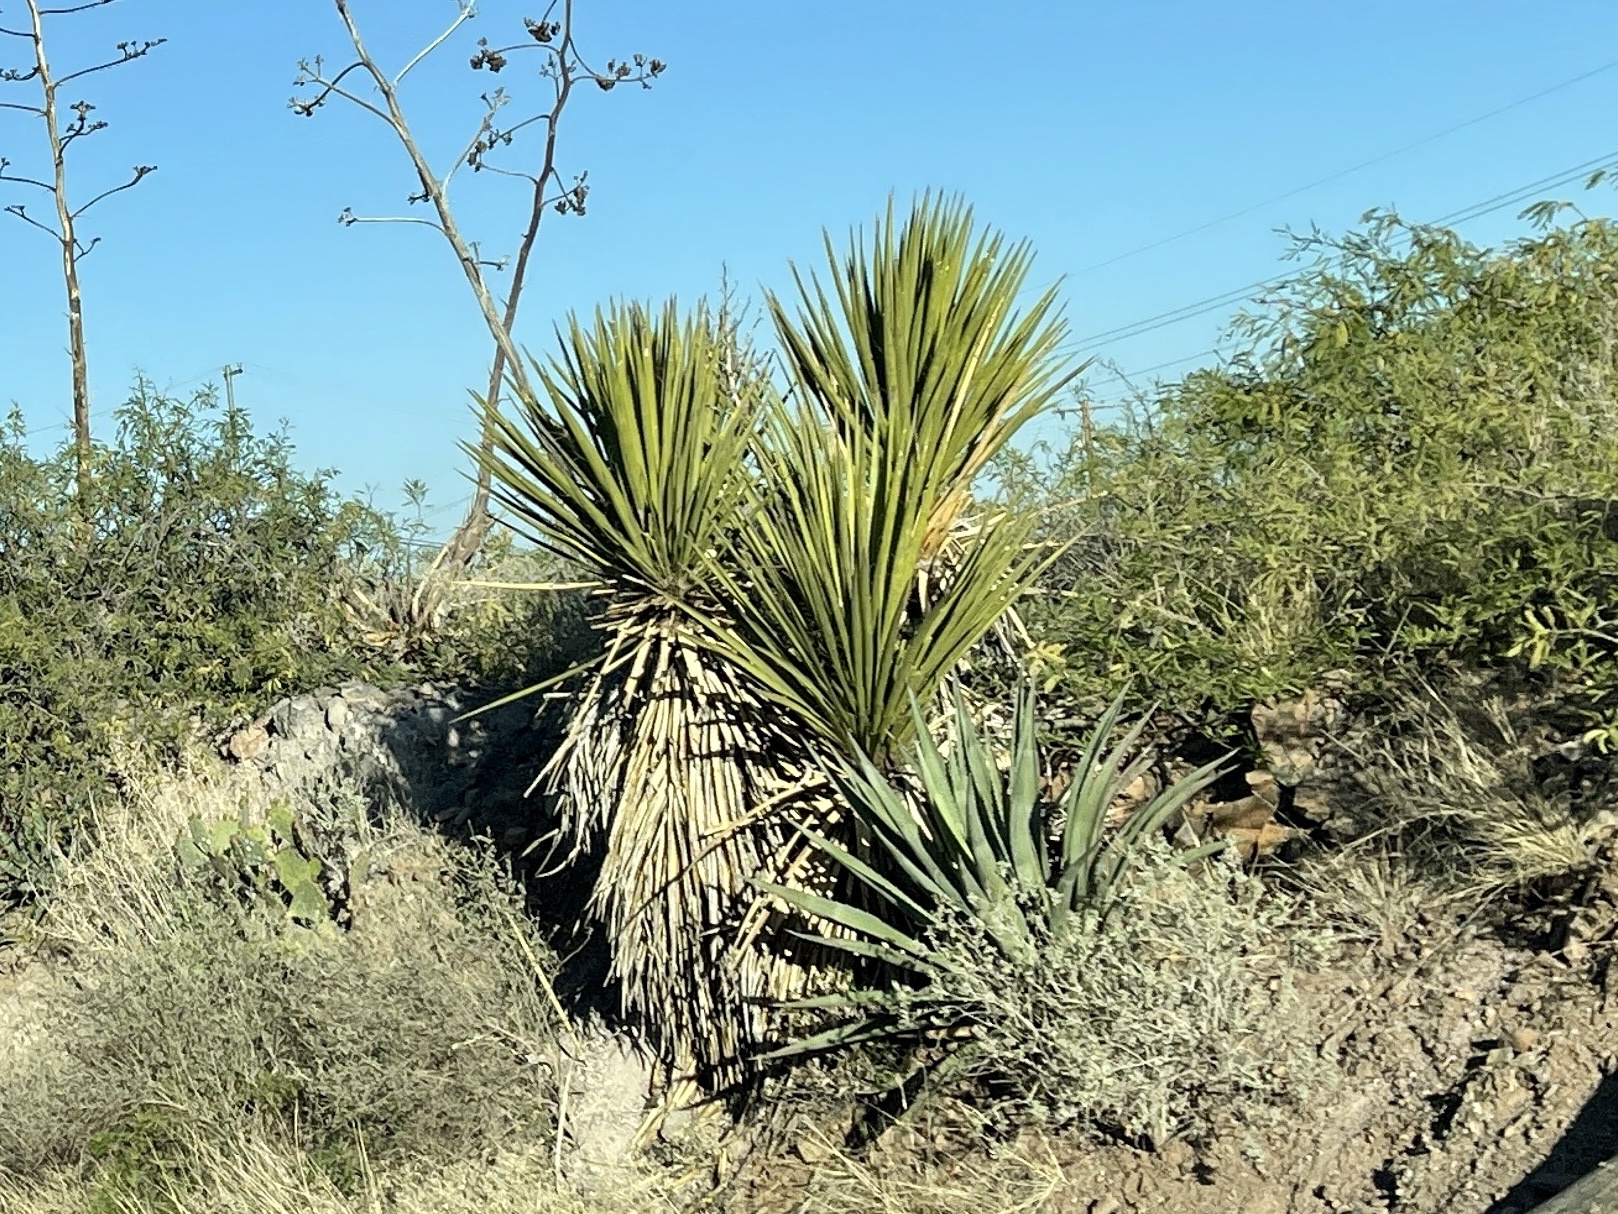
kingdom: Plantae
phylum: Tracheophyta
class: Liliopsida
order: Asparagales
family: Asparagaceae
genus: Yucca
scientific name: Yucca baccata
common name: Banana yucca
